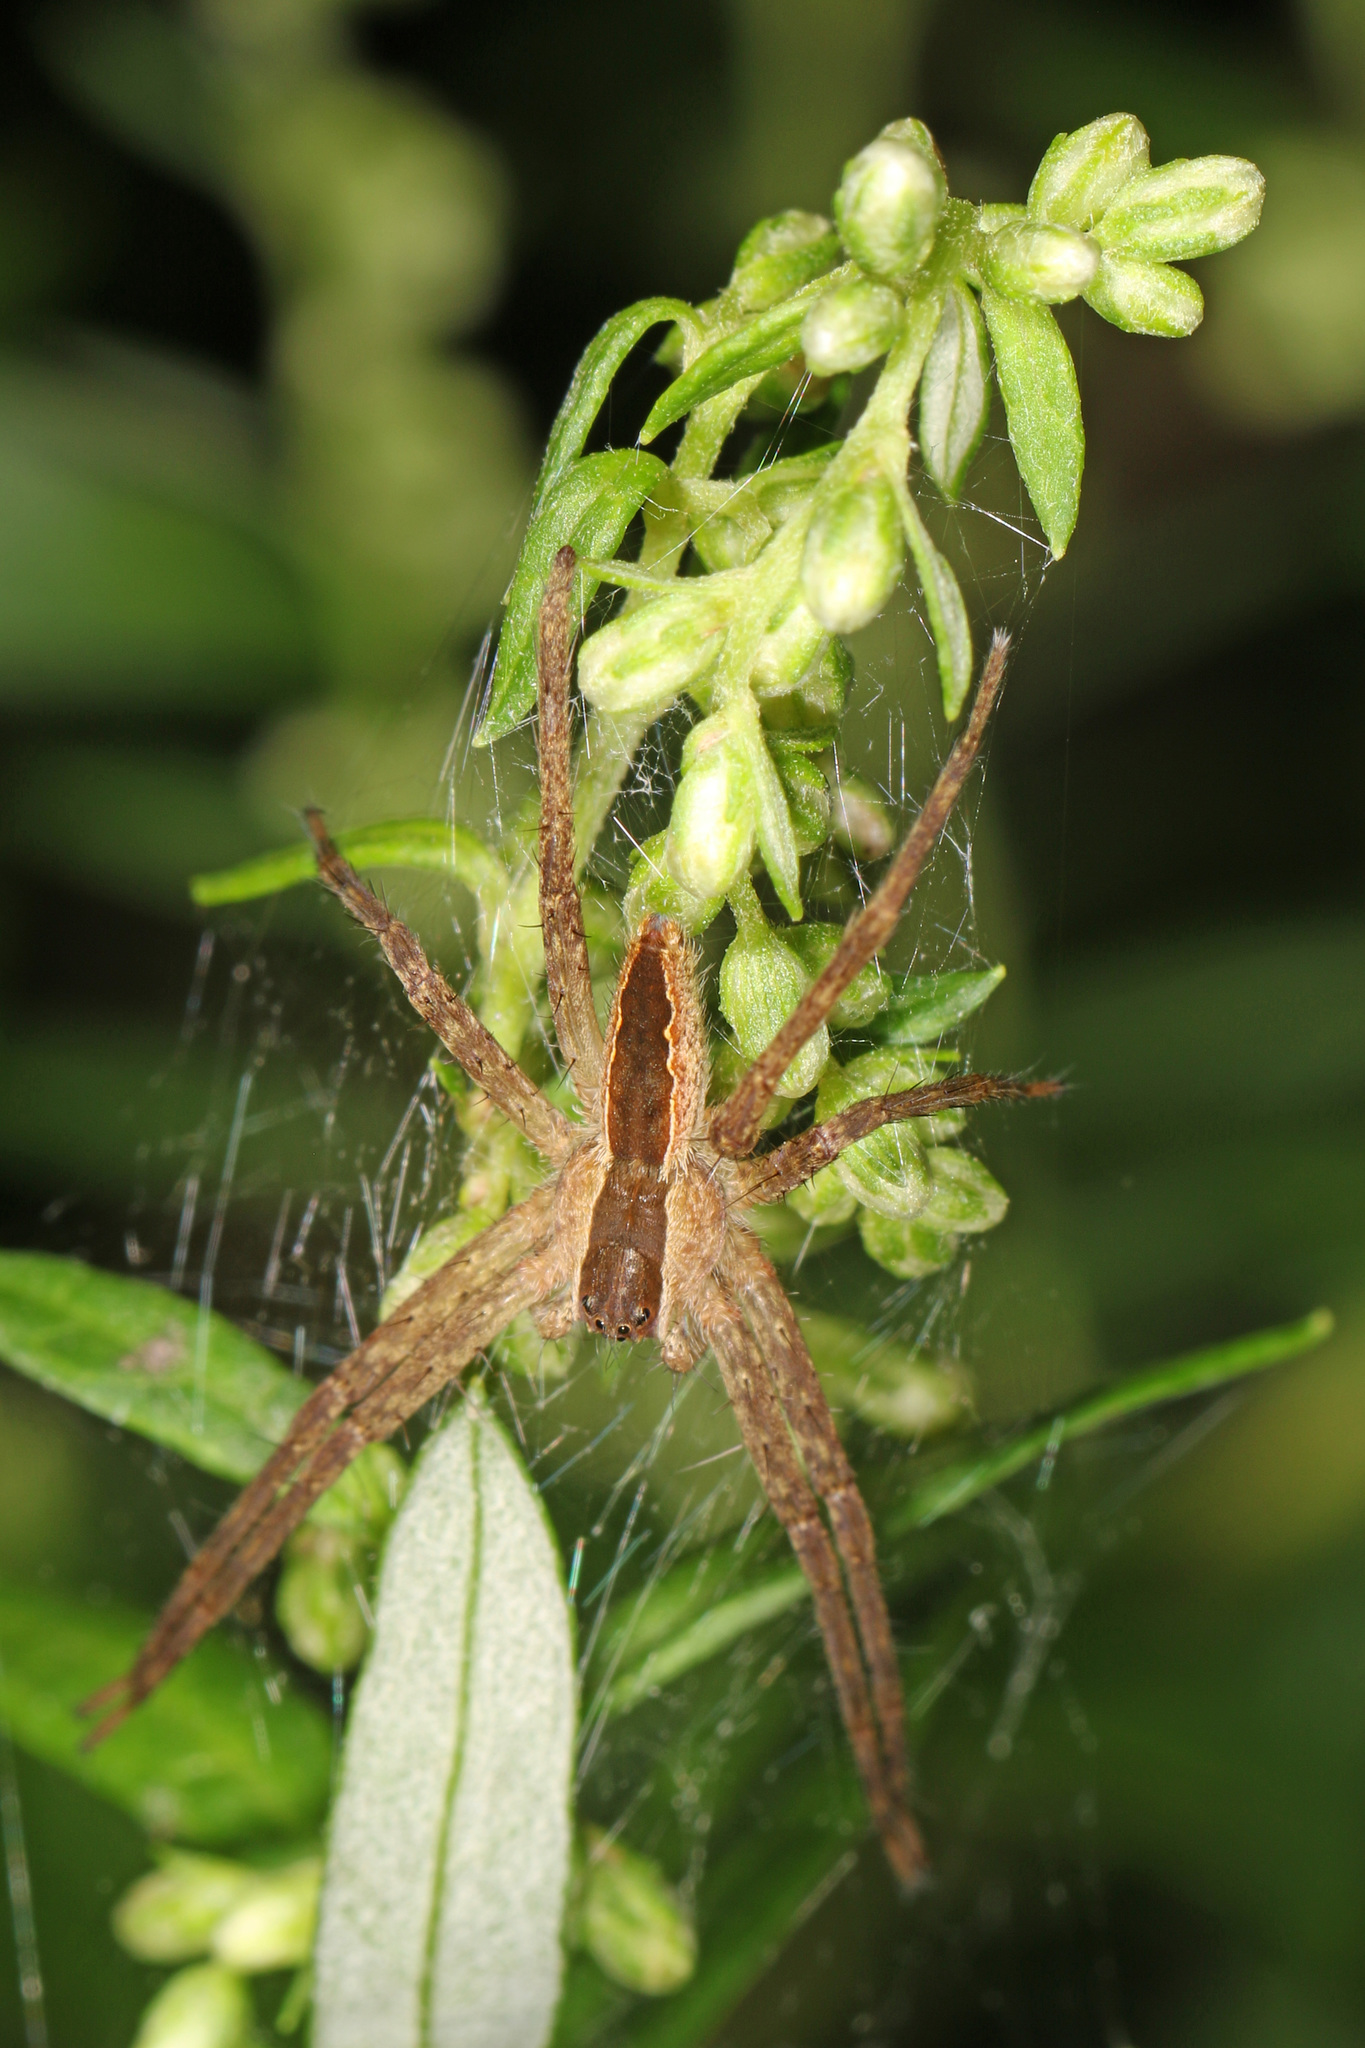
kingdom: Animalia
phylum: Arthropoda
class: Arachnida
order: Araneae
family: Pisauridae
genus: Pisaurina
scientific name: Pisaurina mira
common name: American nursery web spider
